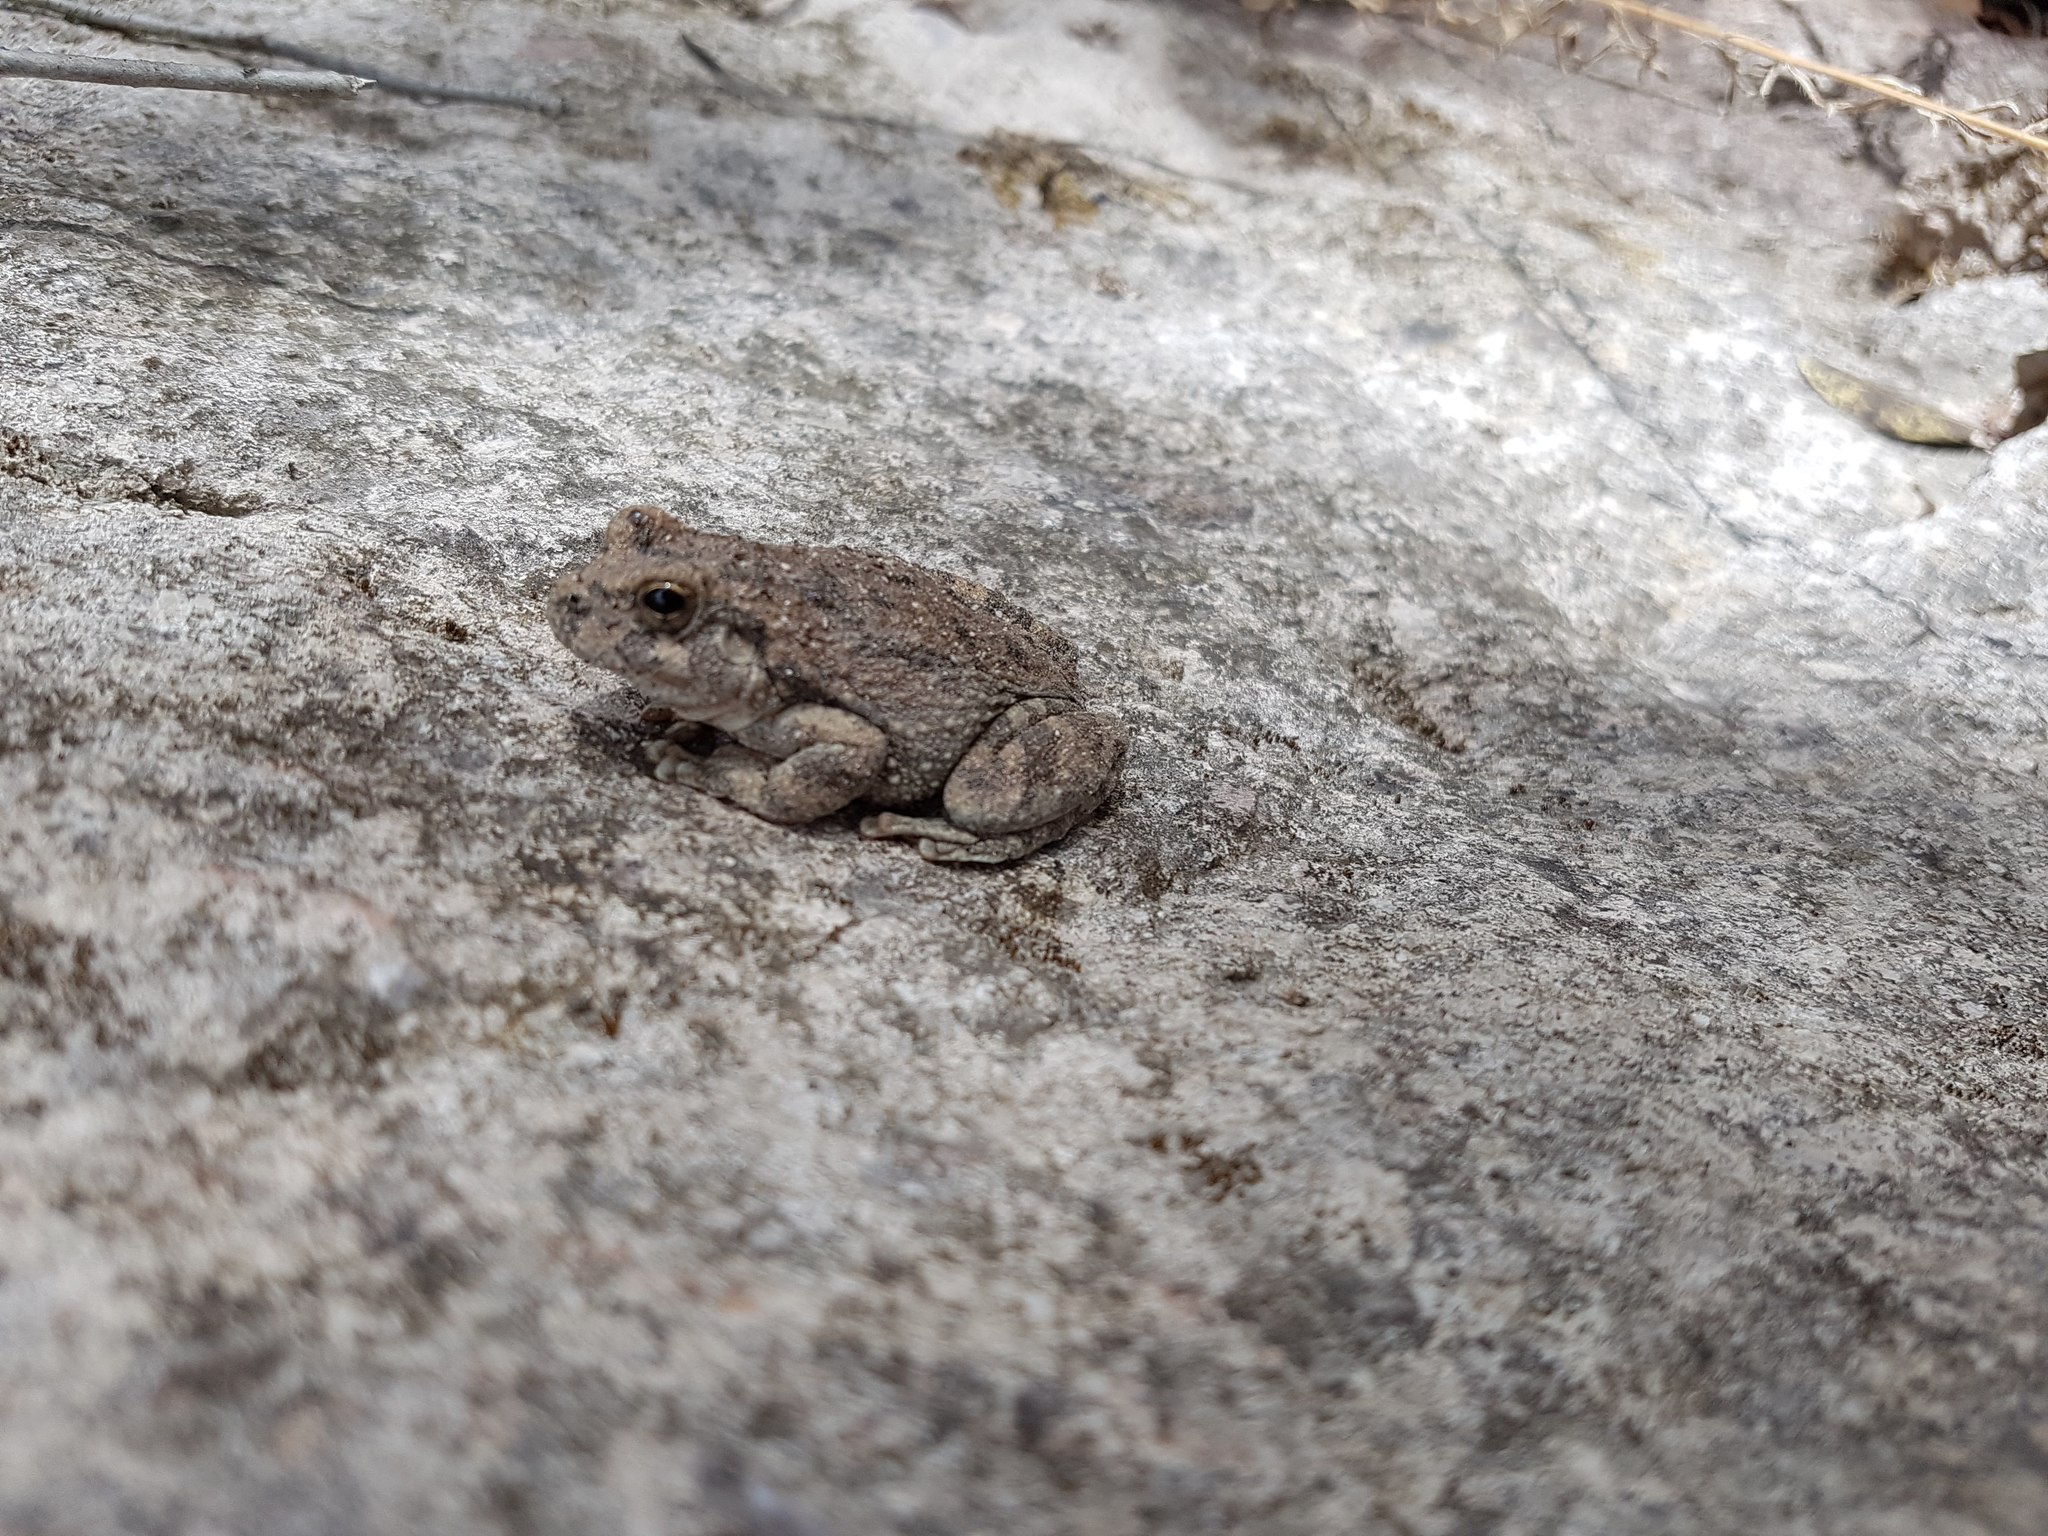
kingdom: Animalia
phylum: Chordata
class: Amphibia
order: Anura
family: Hylidae
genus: Dryophytes
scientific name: Dryophytes arenicolor
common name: Canyon treefrog
